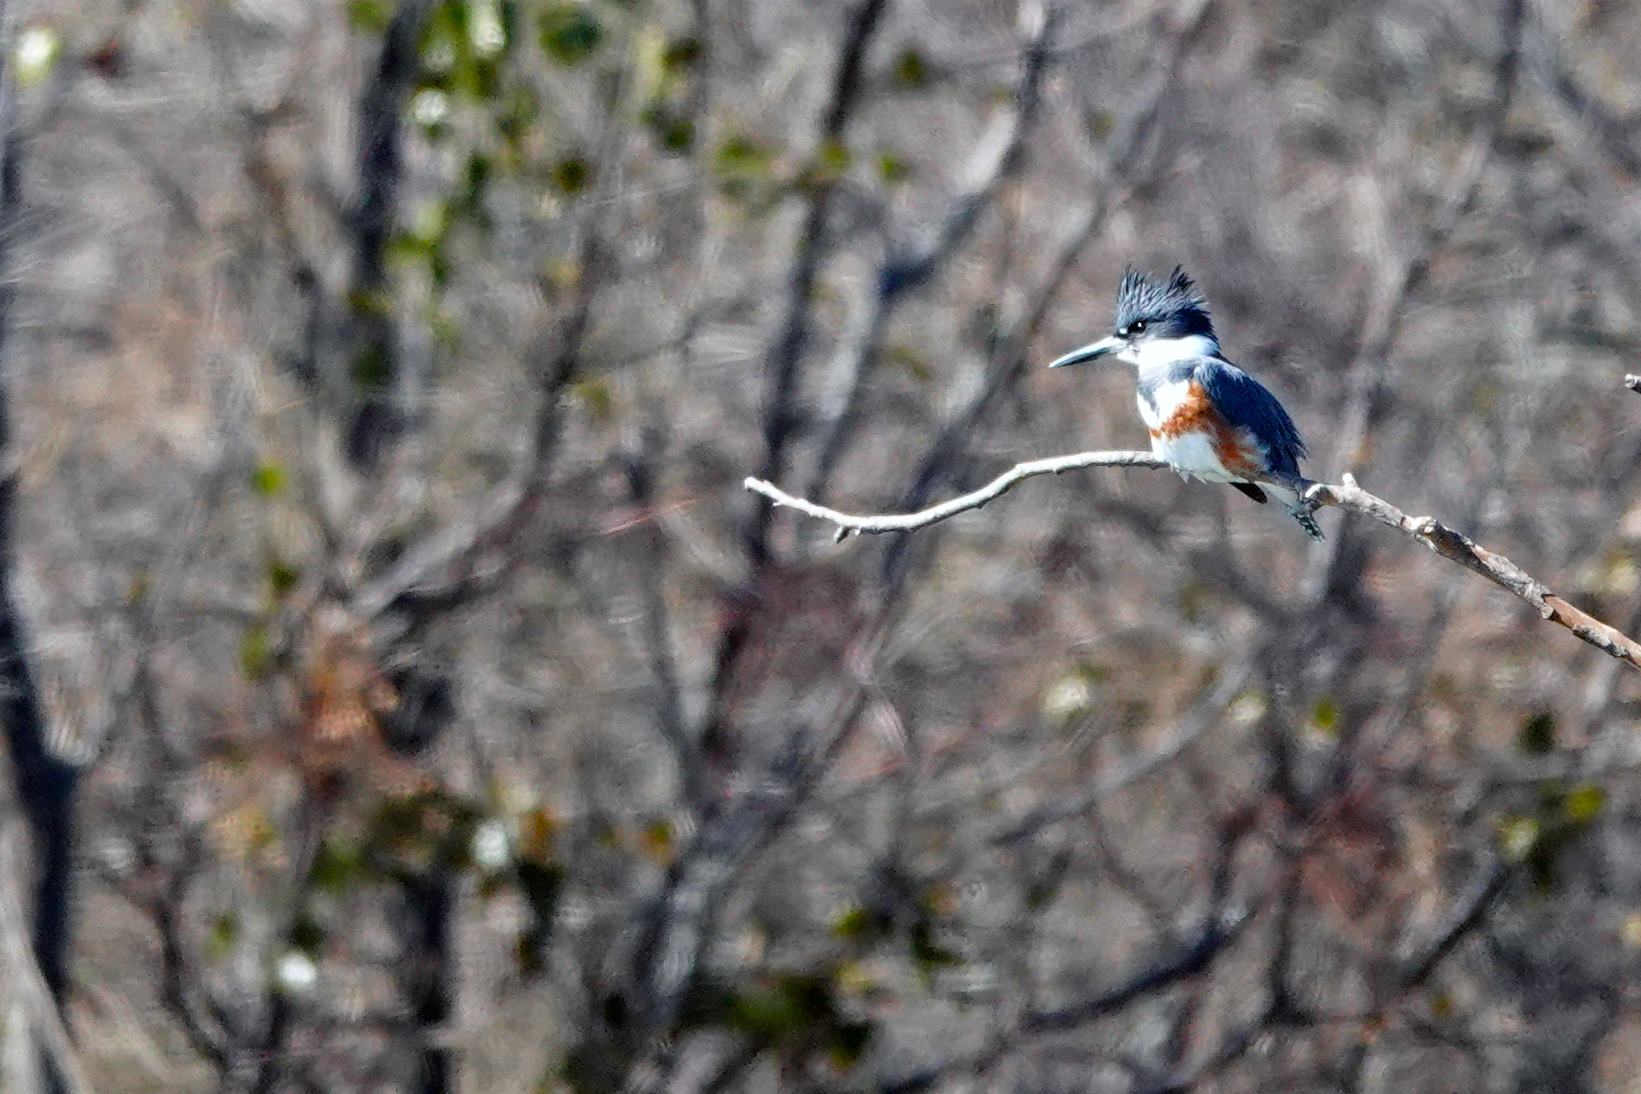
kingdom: Animalia
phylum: Chordata
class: Aves
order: Coraciiformes
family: Alcedinidae
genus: Megaceryle
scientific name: Megaceryle alcyon
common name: Belted kingfisher
